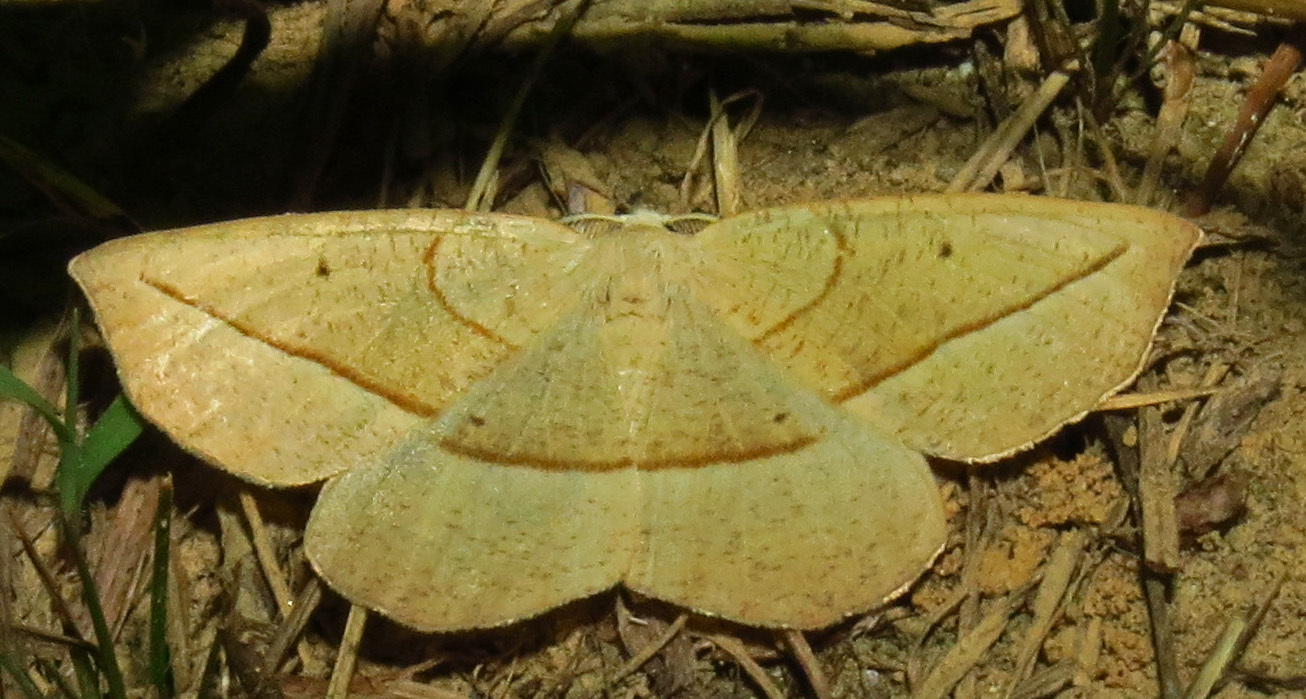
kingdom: Animalia
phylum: Arthropoda
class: Insecta
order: Lepidoptera
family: Geometridae
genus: Eusarca
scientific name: Eusarca confusaria
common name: Confused eusarca
